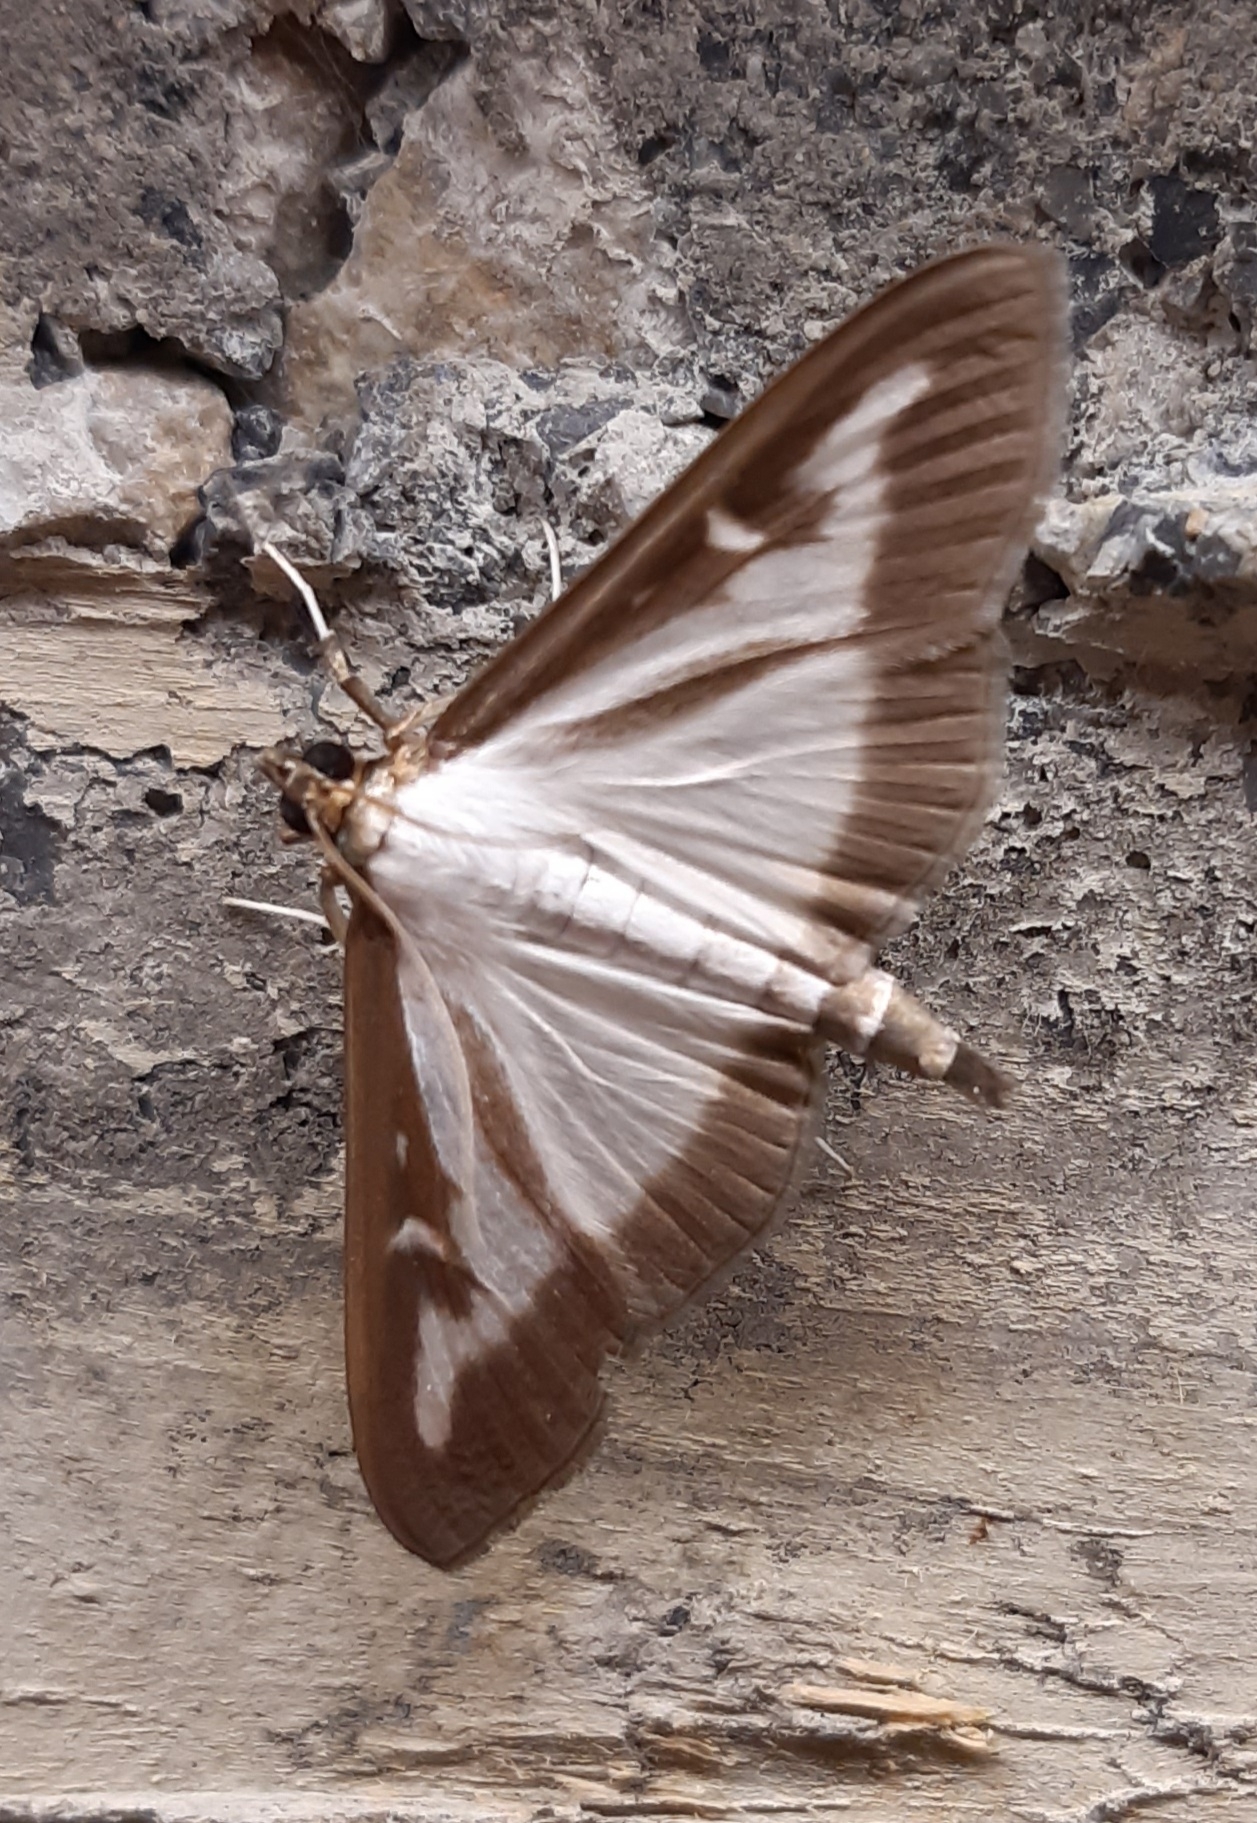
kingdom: Animalia
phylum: Arthropoda
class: Insecta
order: Lepidoptera
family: Crambidae
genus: Cydalima
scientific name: Cydalima perspectalis
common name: Box tree moth
